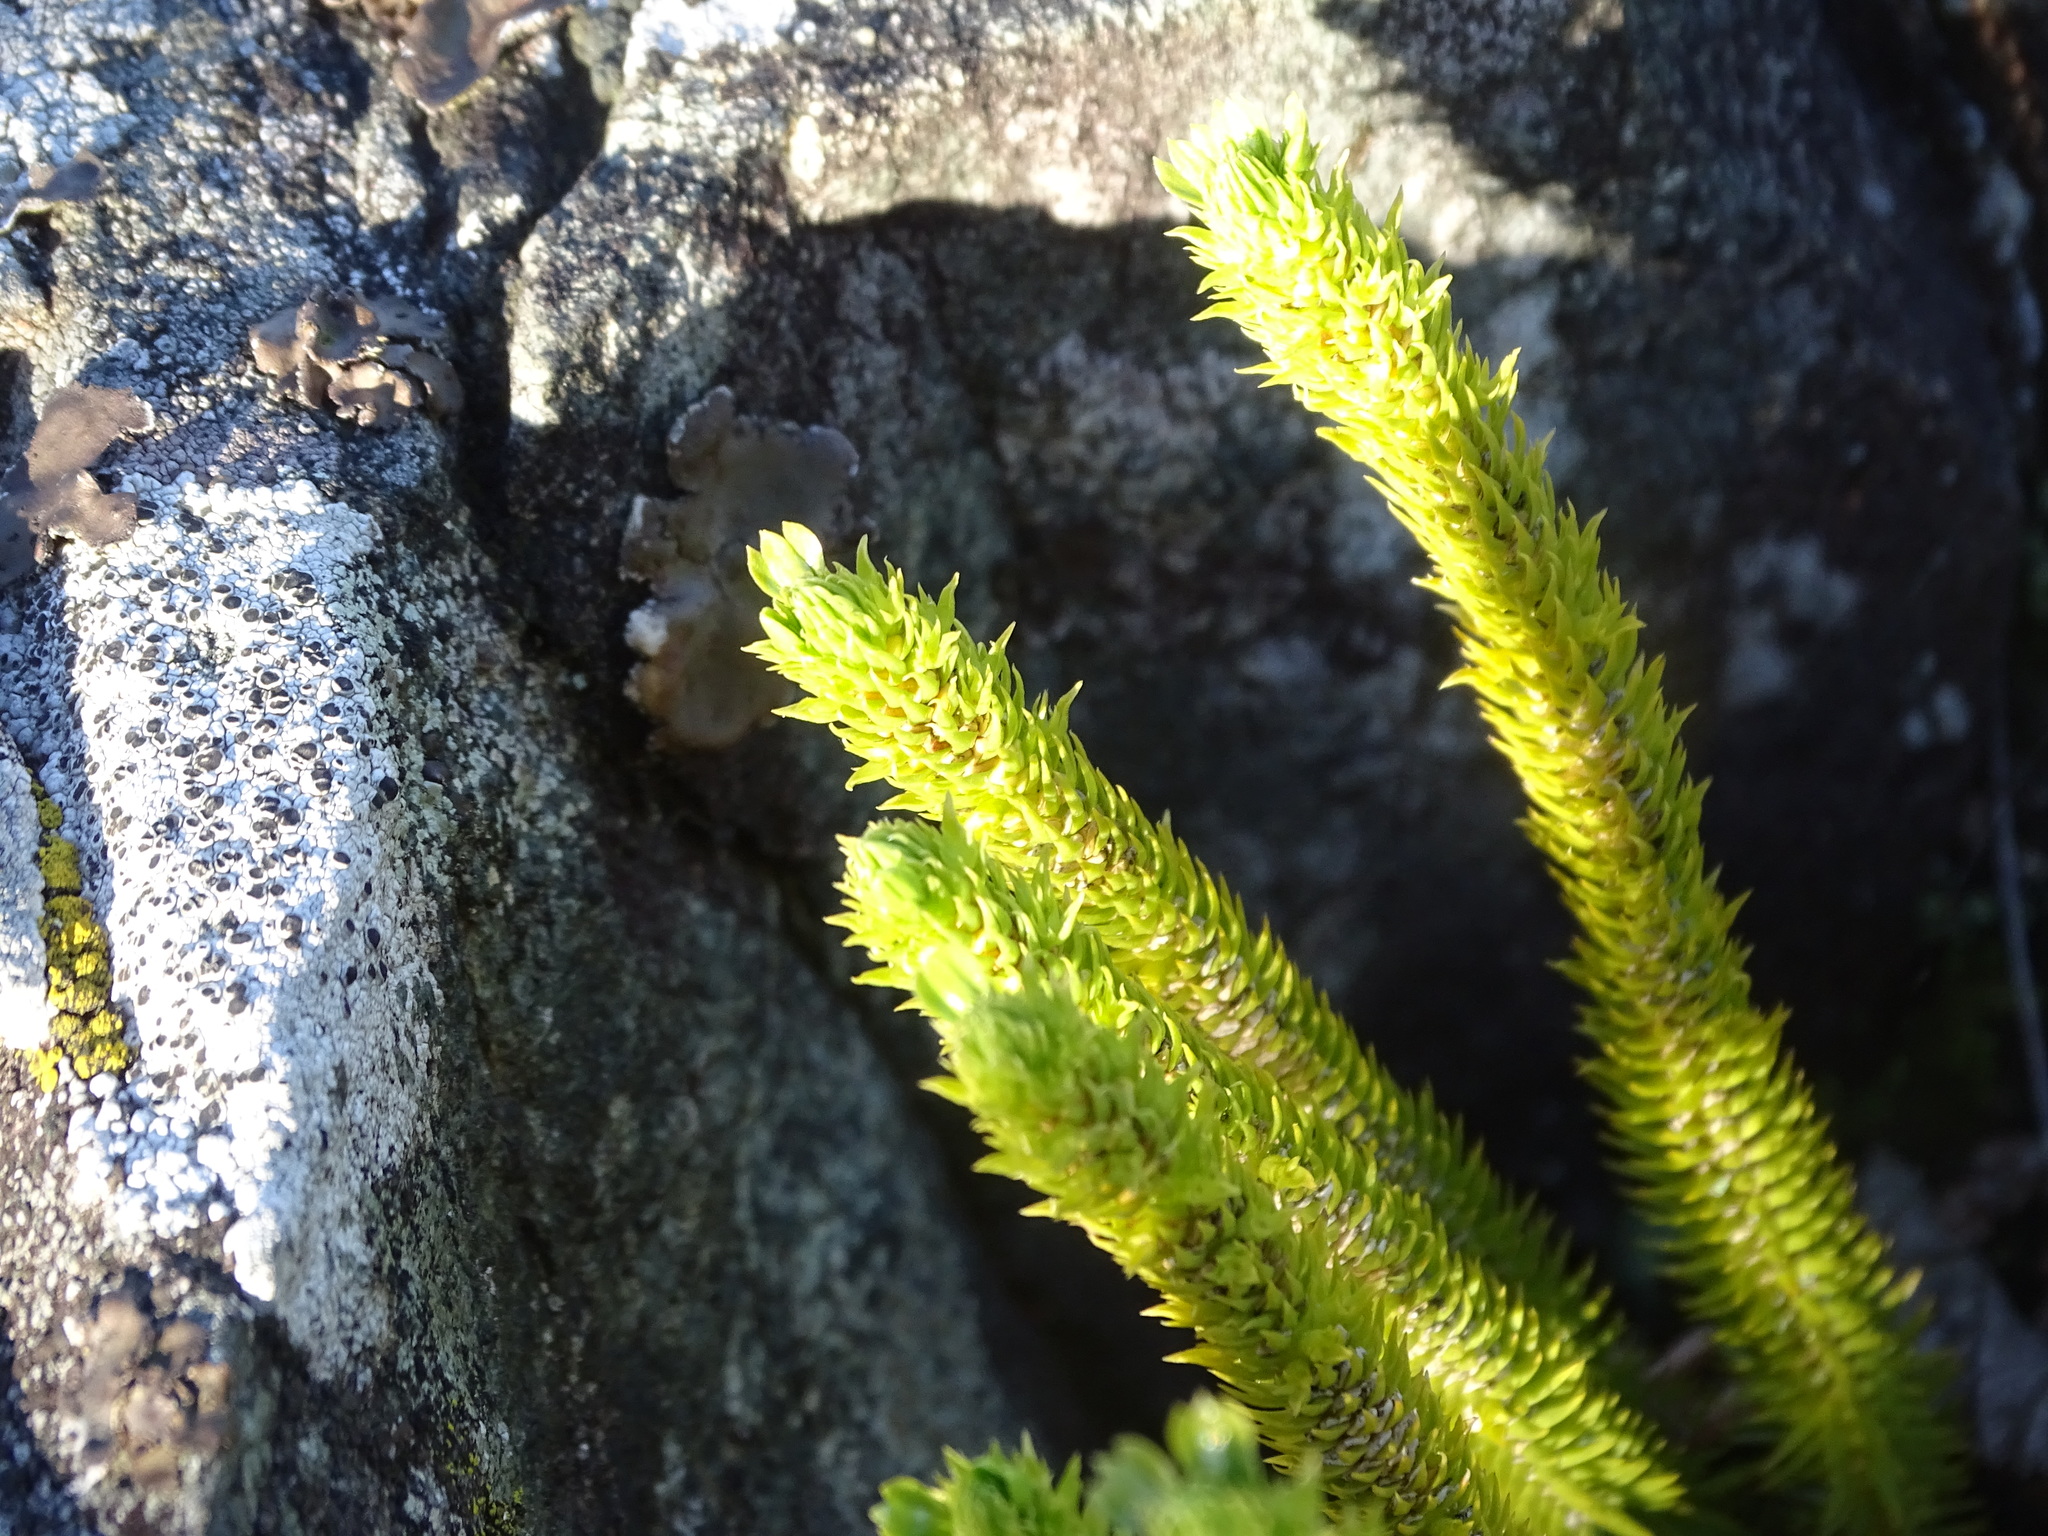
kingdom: Plantae
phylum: Tracheophyta
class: Lycopodiopsida
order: Lycopodiales
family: Lycopodiaceae
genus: Huperzia
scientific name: Huperzia selago
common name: Northern firmoss
